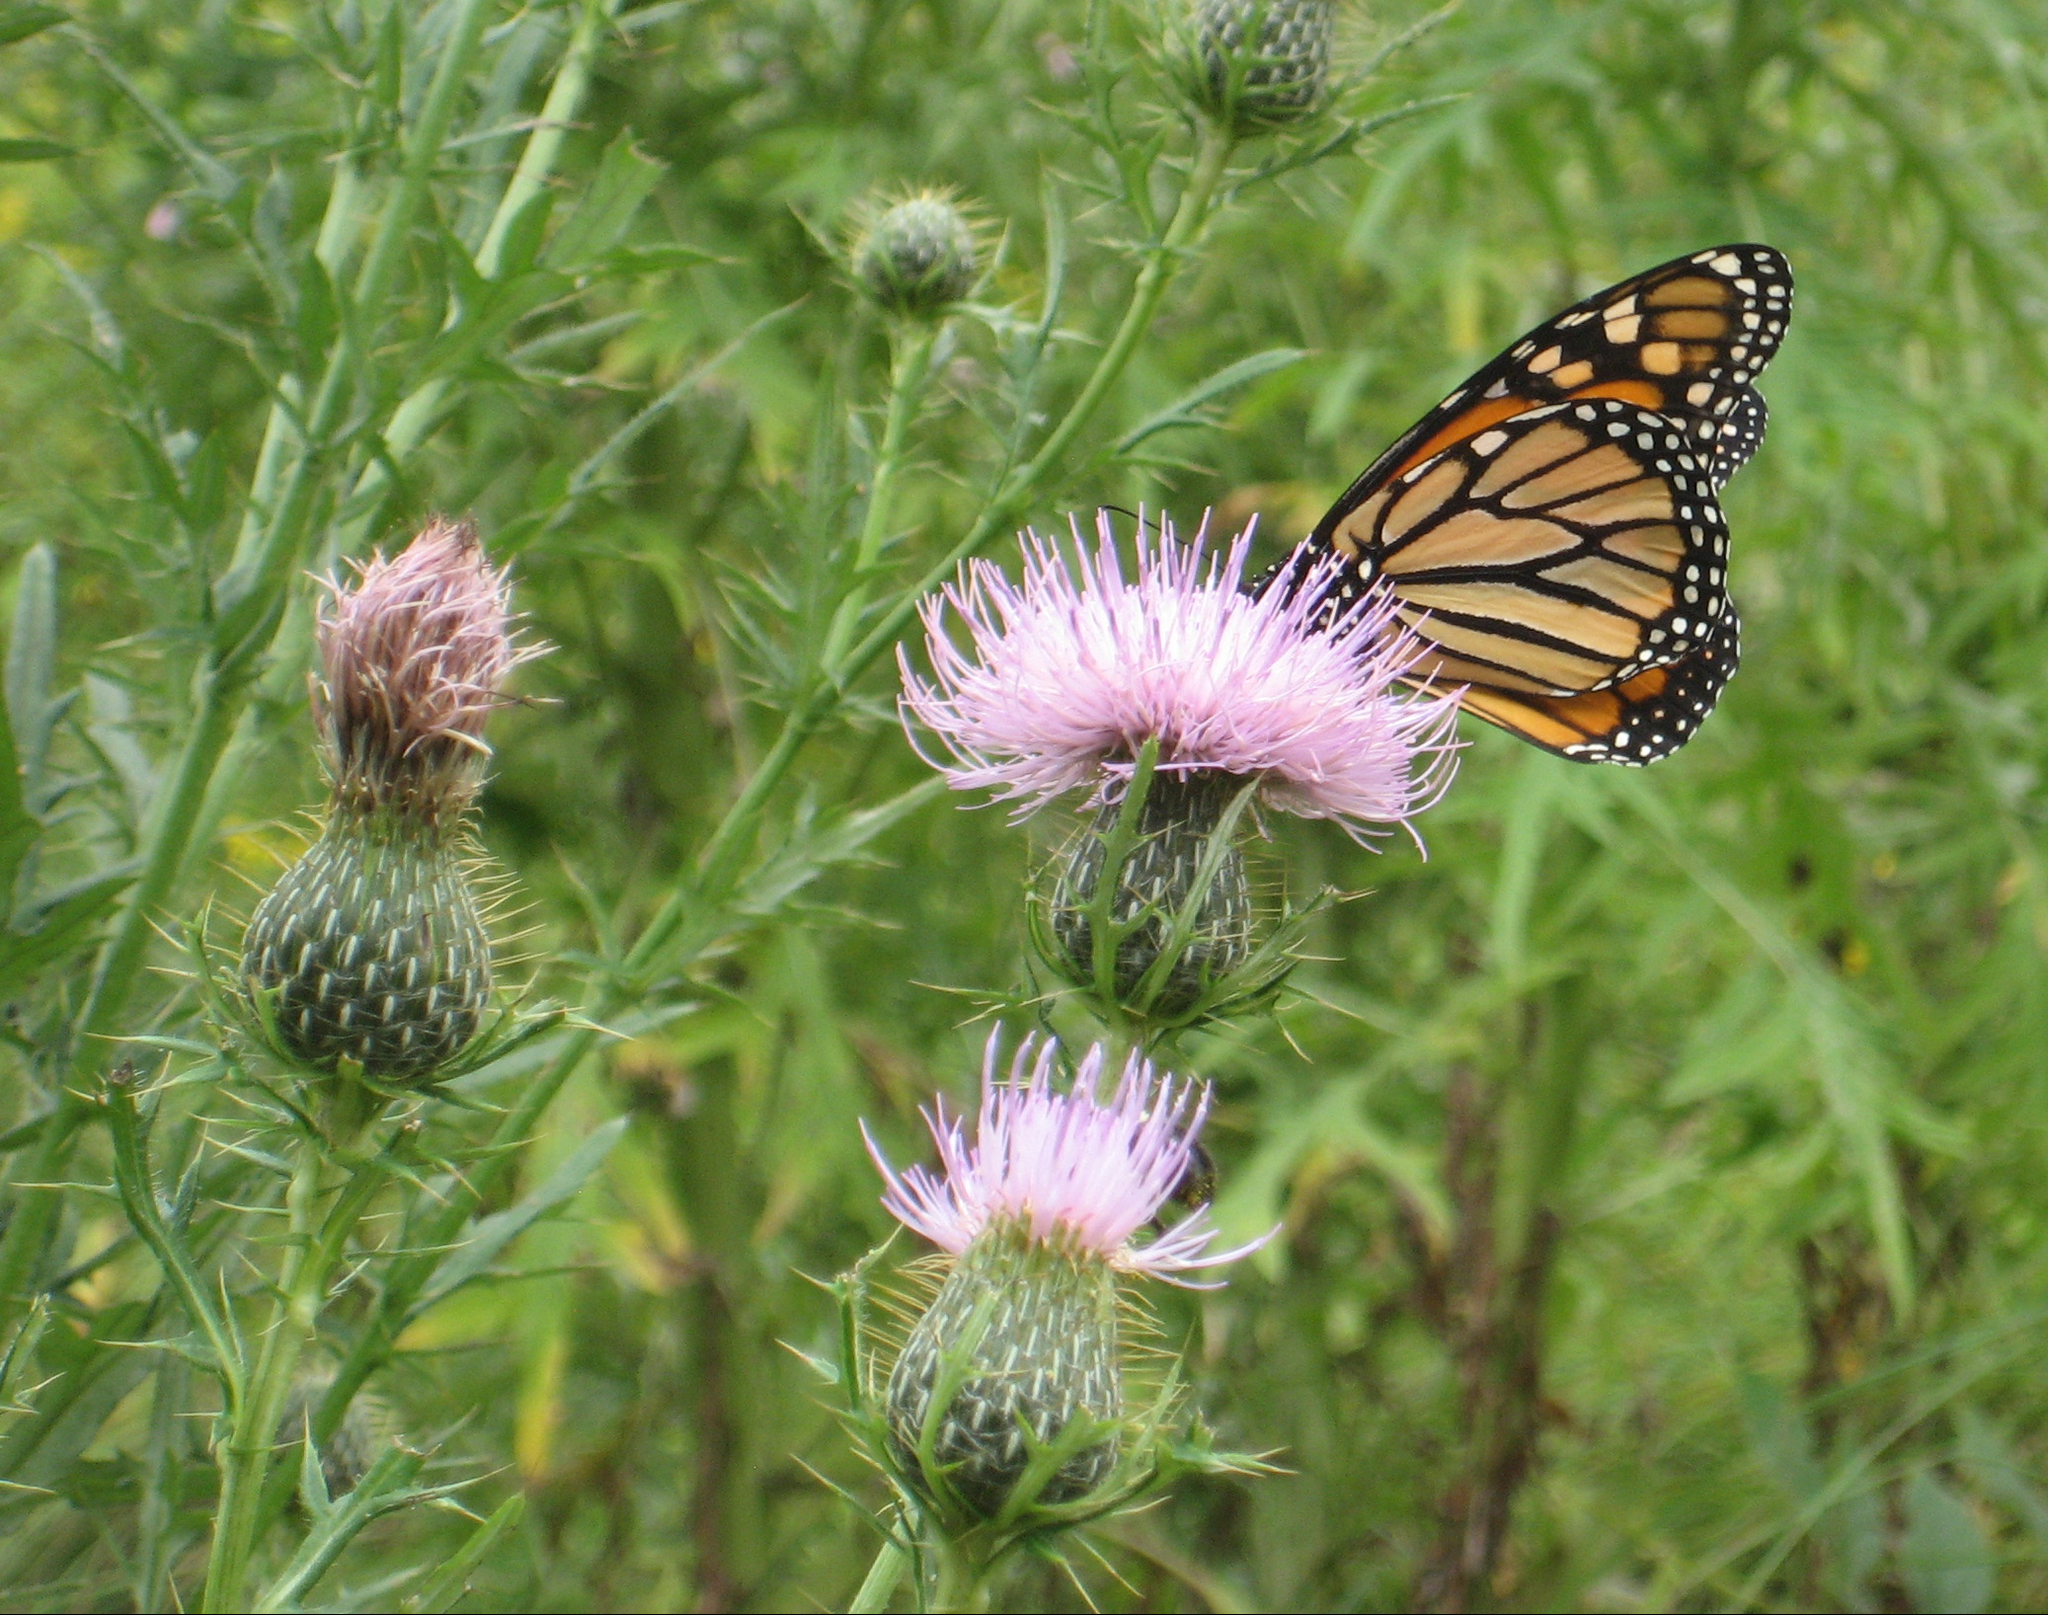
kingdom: Animalia
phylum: Arthropoda
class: Insecta
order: Lepidoptera
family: Nymphalidae
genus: Danaus
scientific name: Danaus plexippus
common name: Monarch
